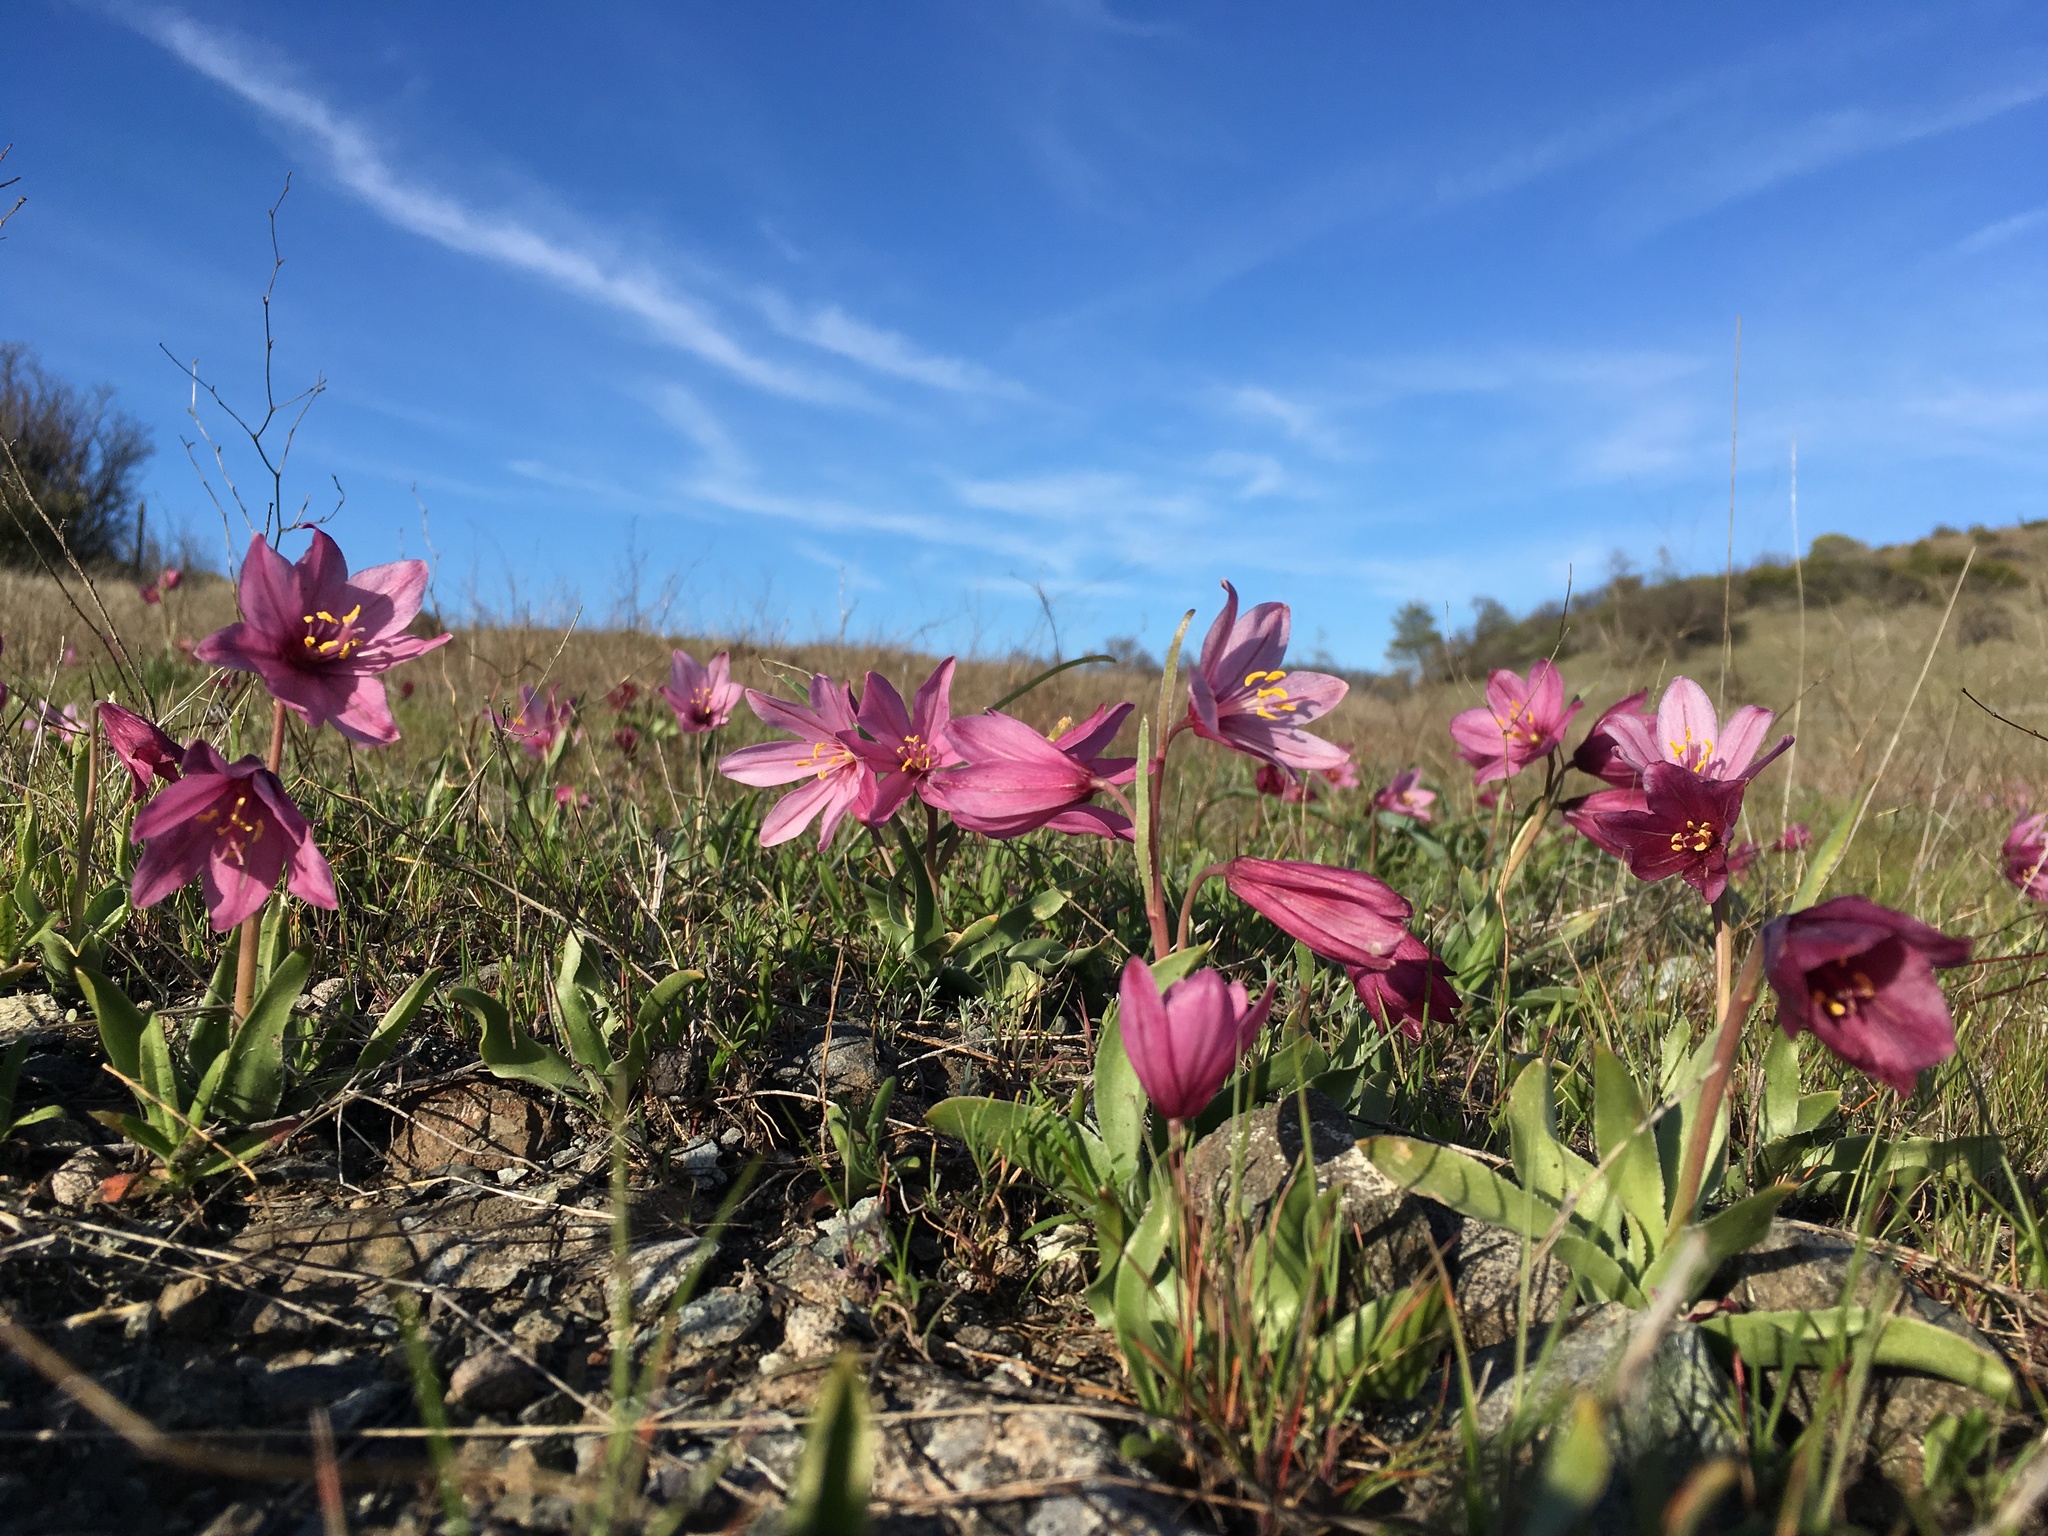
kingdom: Plantae
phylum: Tracheophyta
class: Liliopsida
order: Liliales
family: Liliaceae
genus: Fritillaria
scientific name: Fritillaria pluriflora
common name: Adobe-lily
